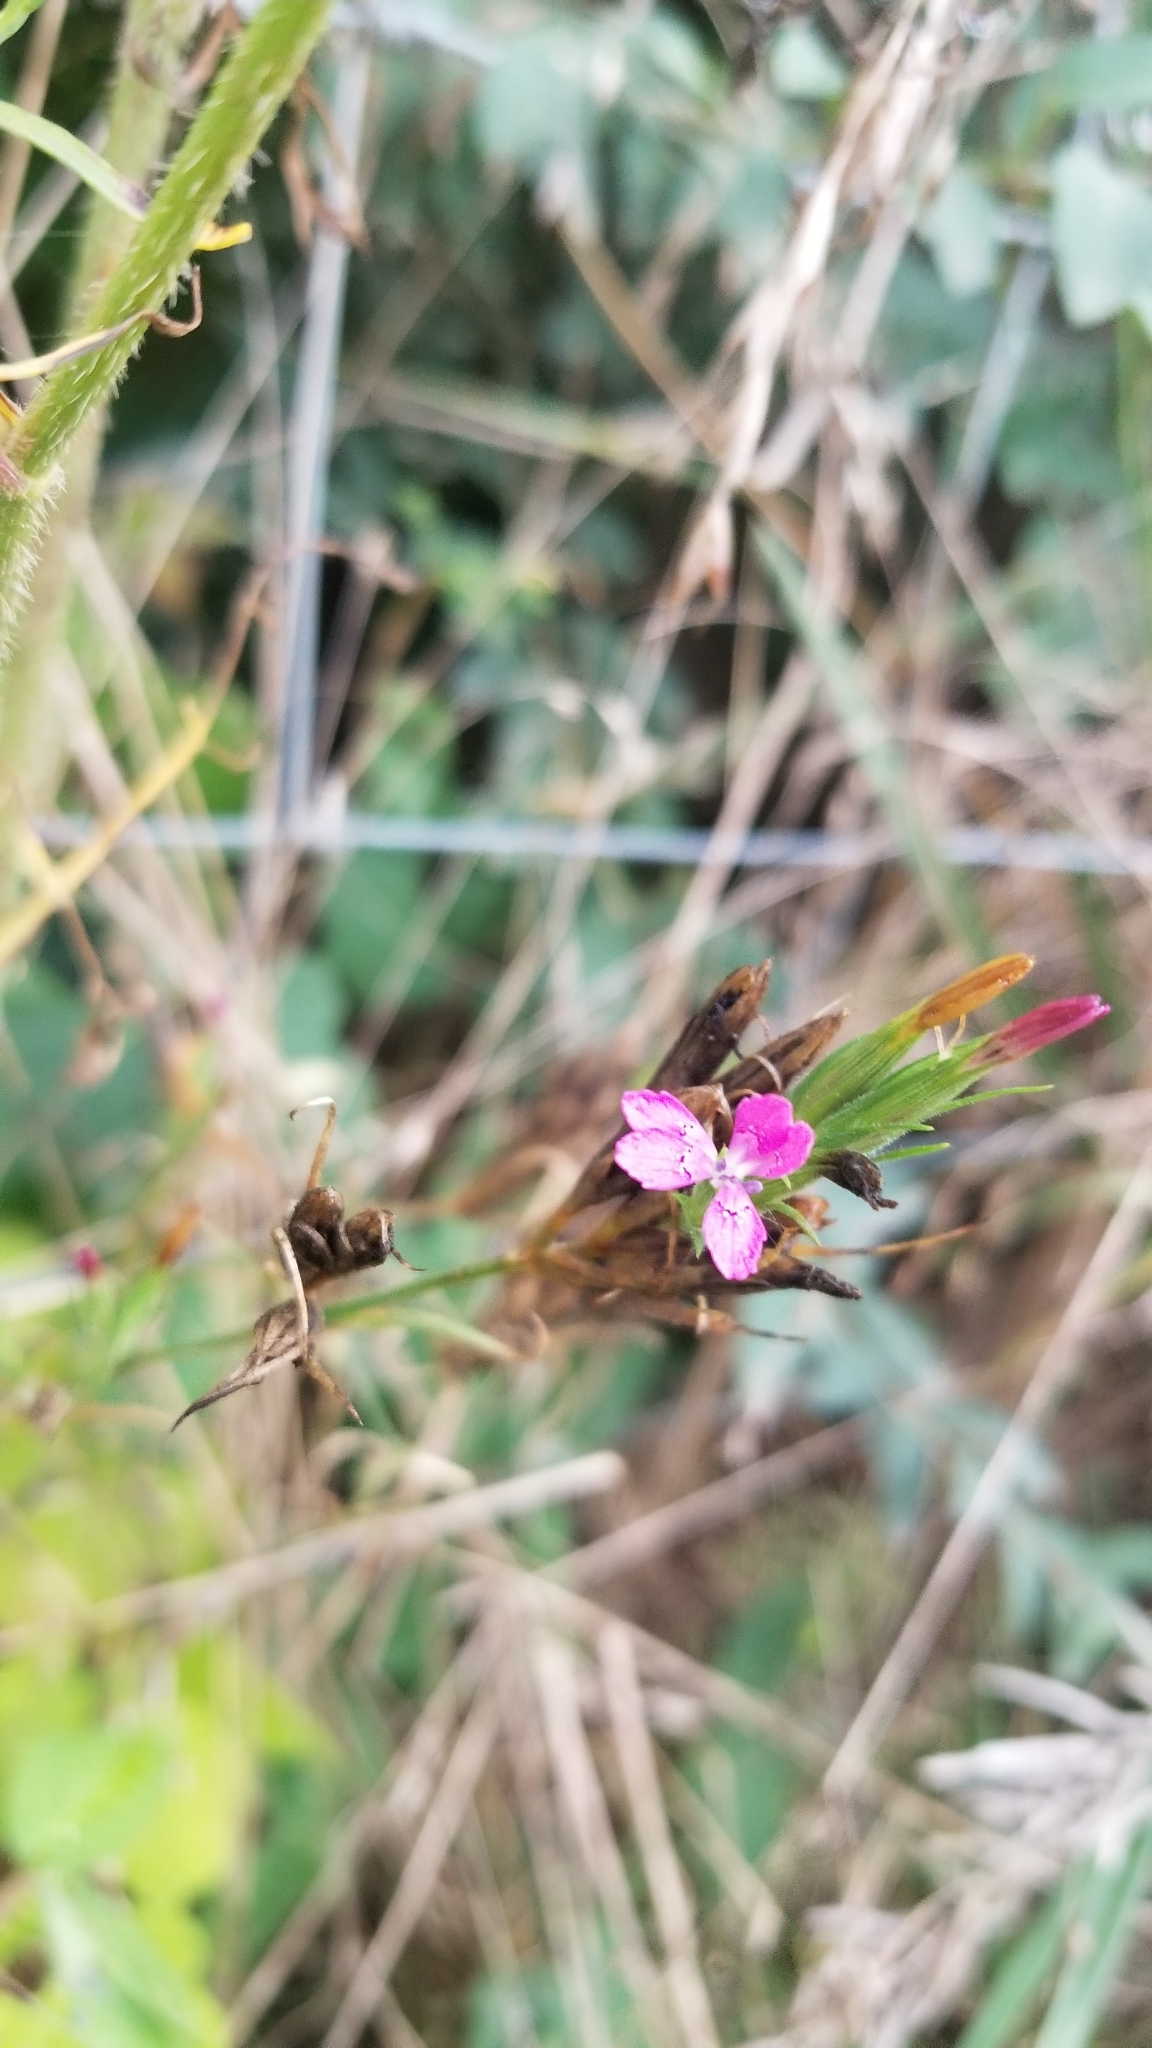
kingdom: Plantae
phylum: Tracheophyta
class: Magnoliopsida
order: Caryophyllales
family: Caryophyllaceae
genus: Dianthus
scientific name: Dianthus armeria
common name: Deptford pink
